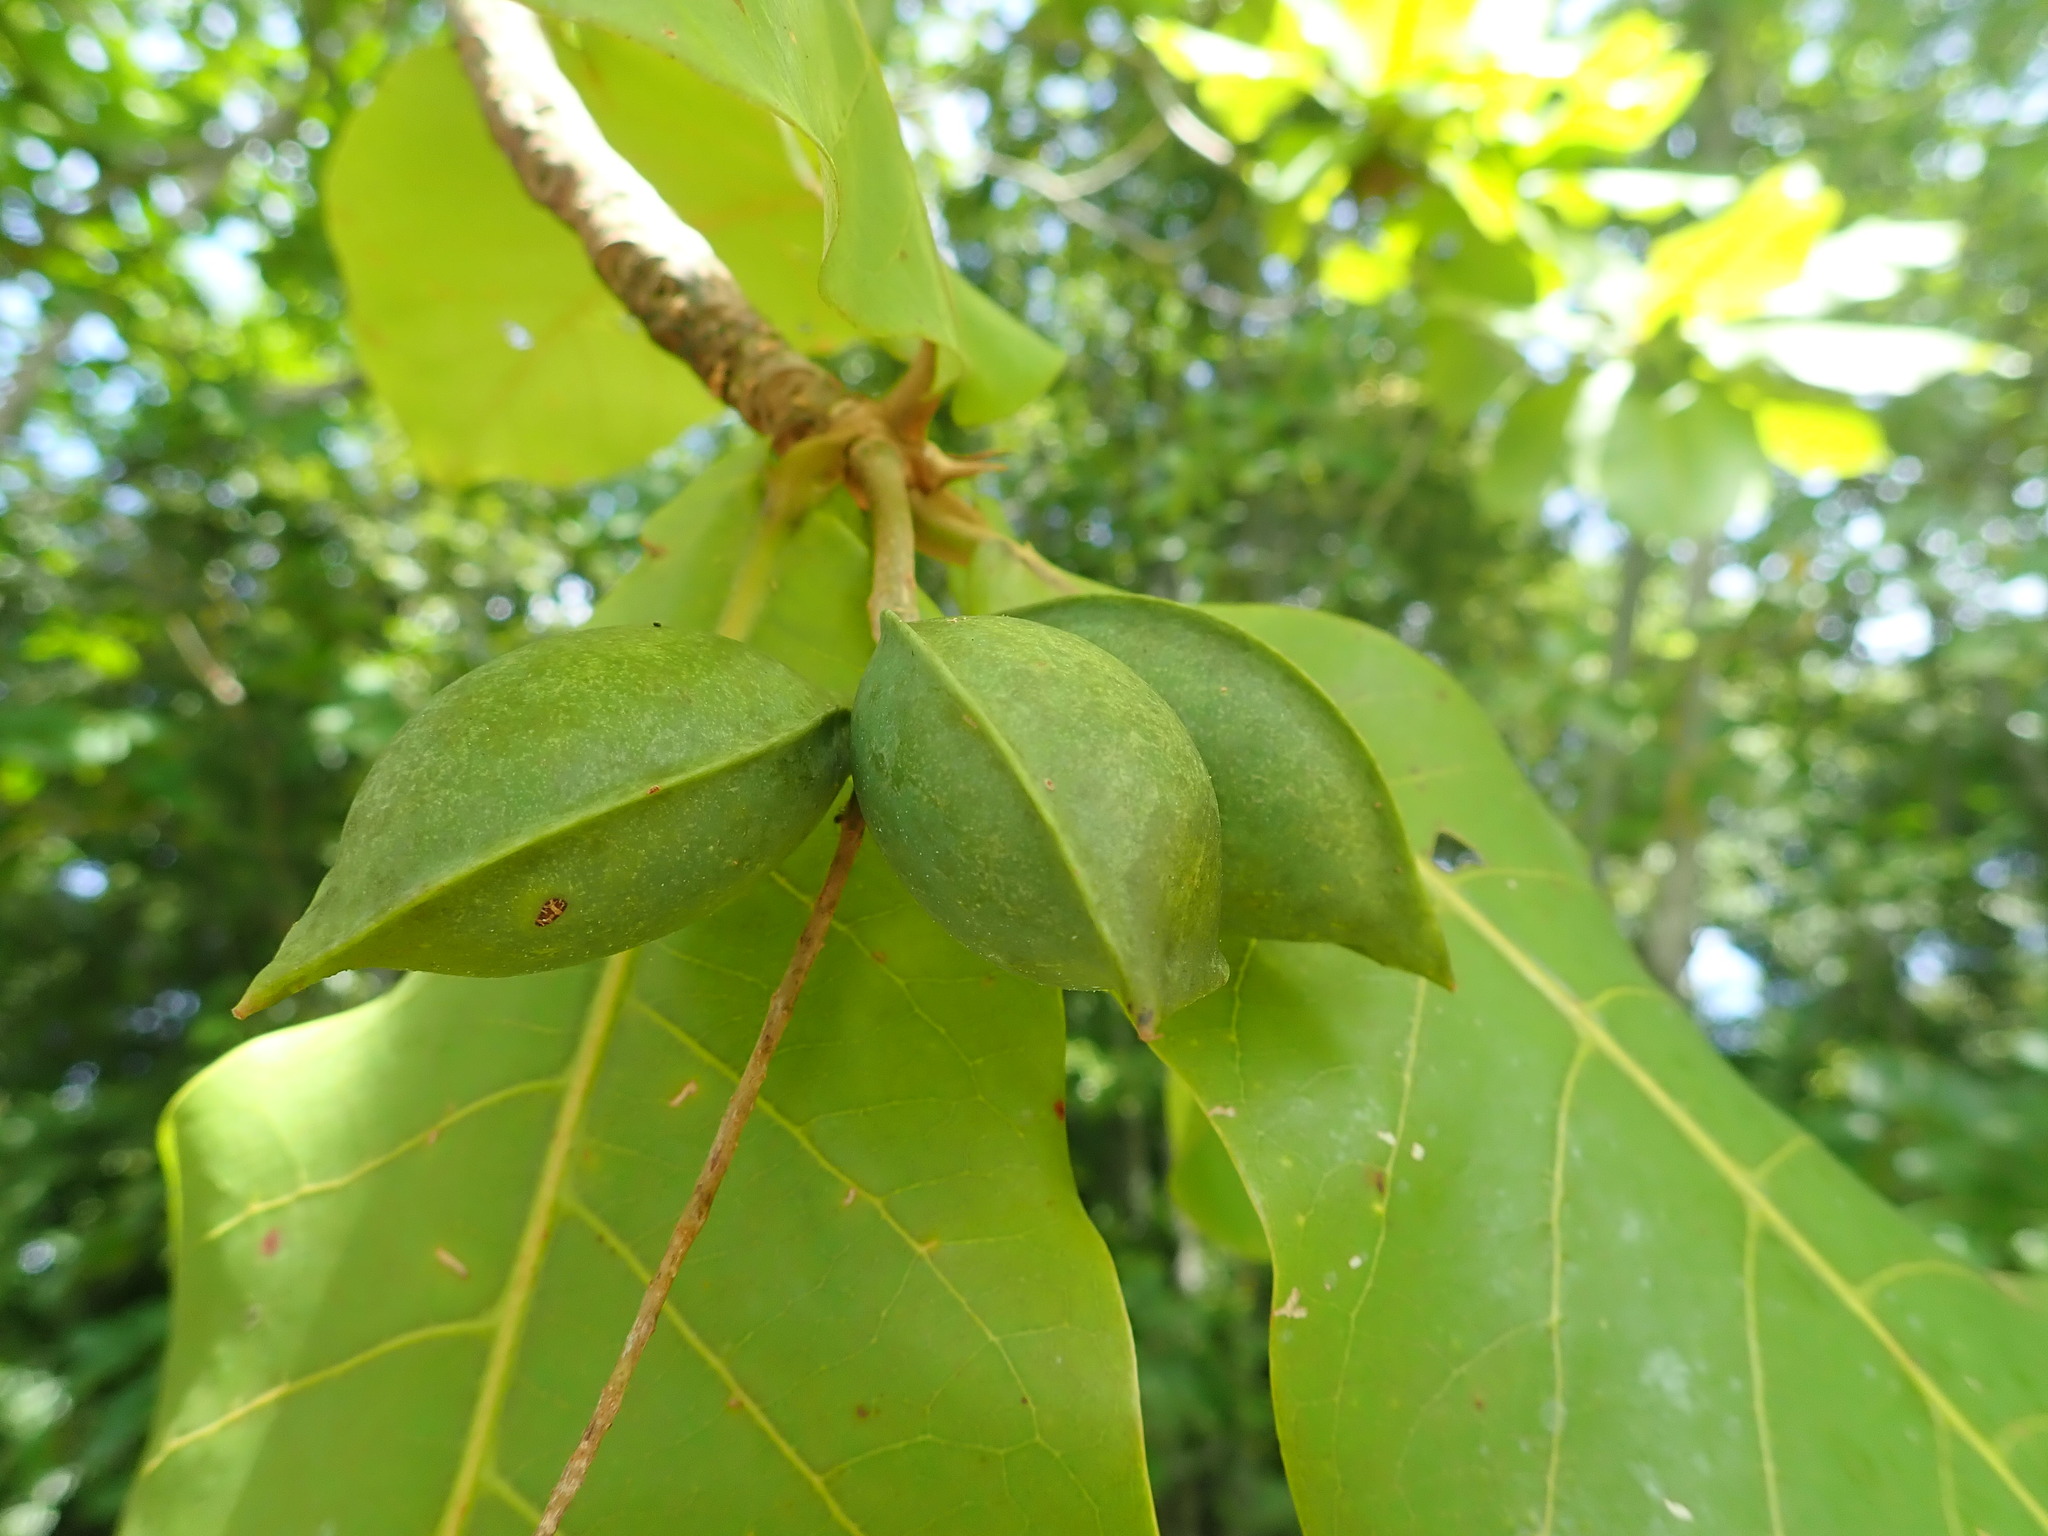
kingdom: Plantae
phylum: Tracheophyta
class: Magnoliopsida
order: Myrtales
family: Combretaceae
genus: Terminalia
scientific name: Terminalia catappa
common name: Tropical almond
